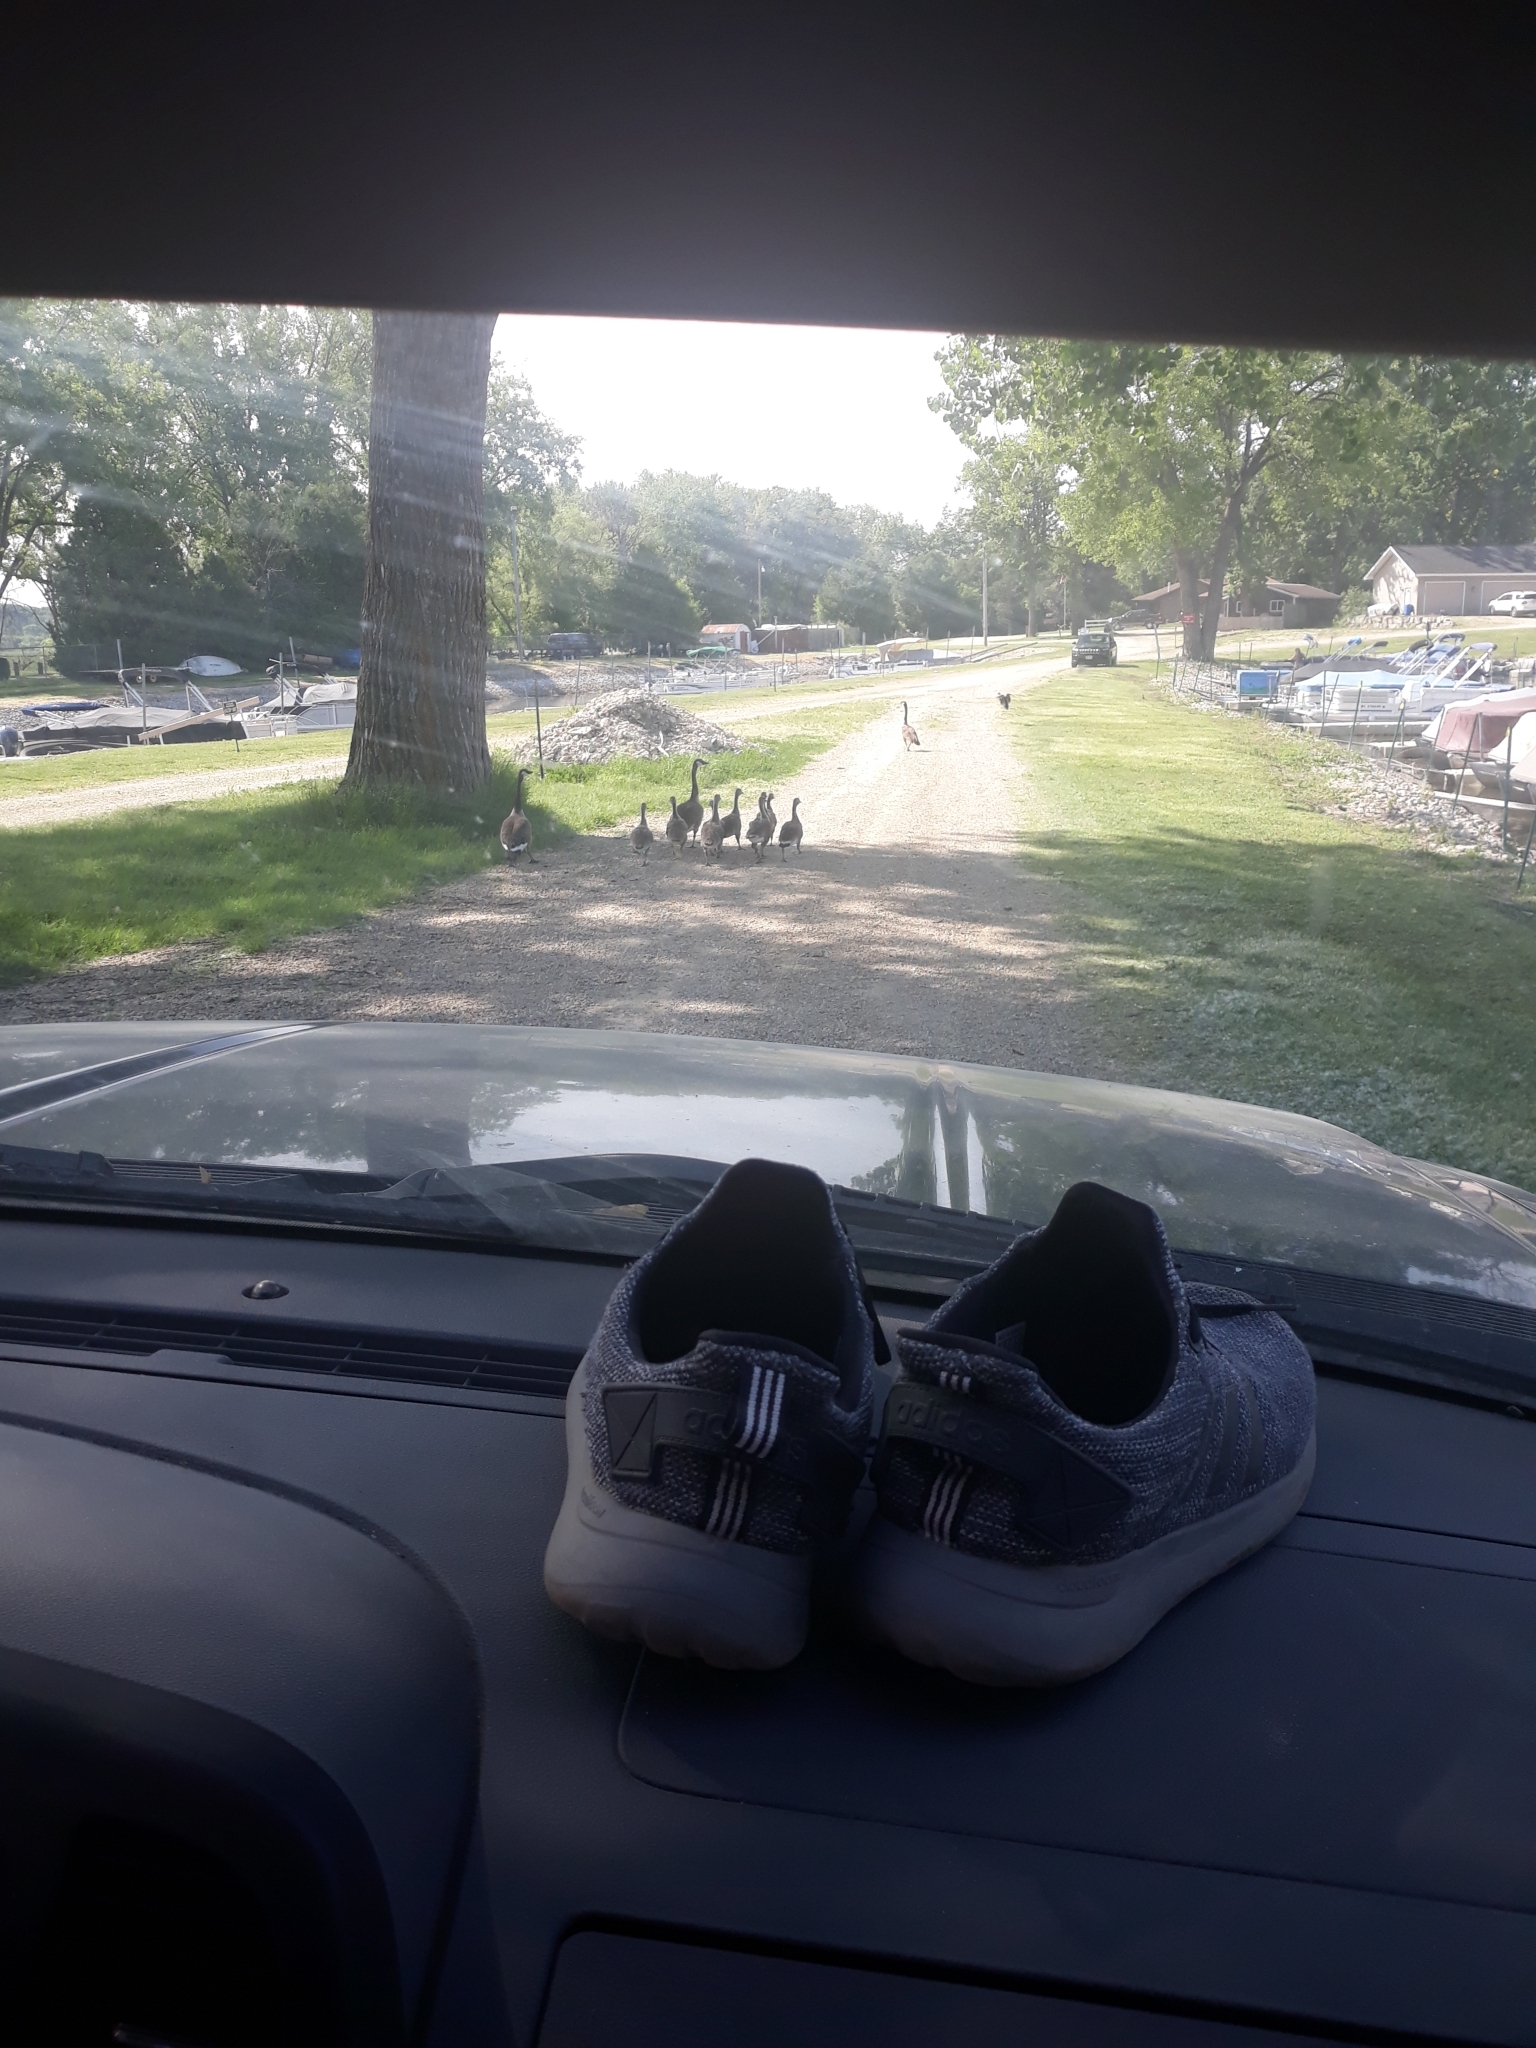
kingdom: Animalia
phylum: Chordata
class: Aves
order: Anseriformes
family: Anatidae
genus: Branta
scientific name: Branta canadensis
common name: Canada goose
